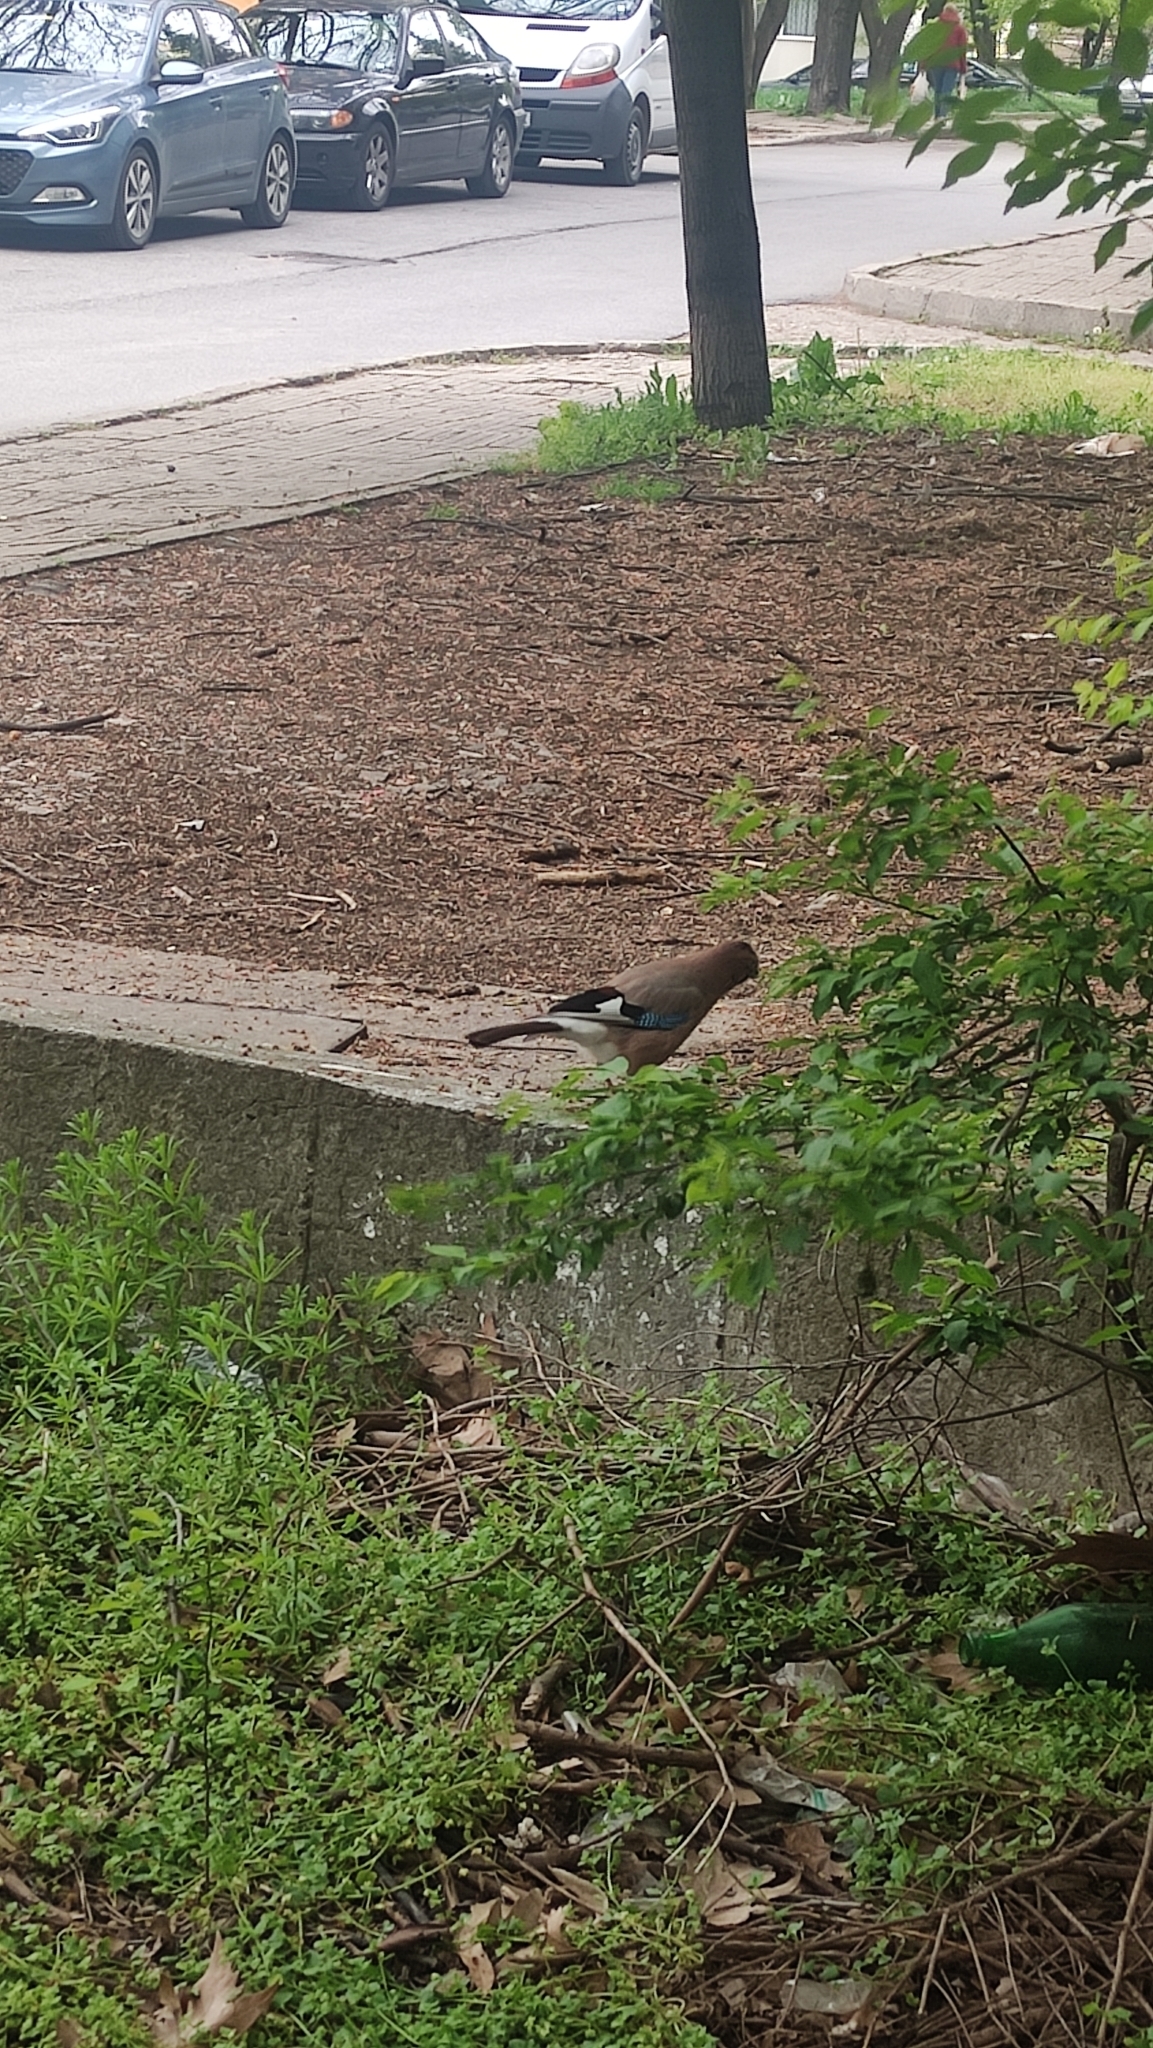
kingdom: Animalia
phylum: Chordata
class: Aves
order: Passeriformes
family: Corvidae
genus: Garrulus
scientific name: Garrulus glandarius
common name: Eurasian jay
